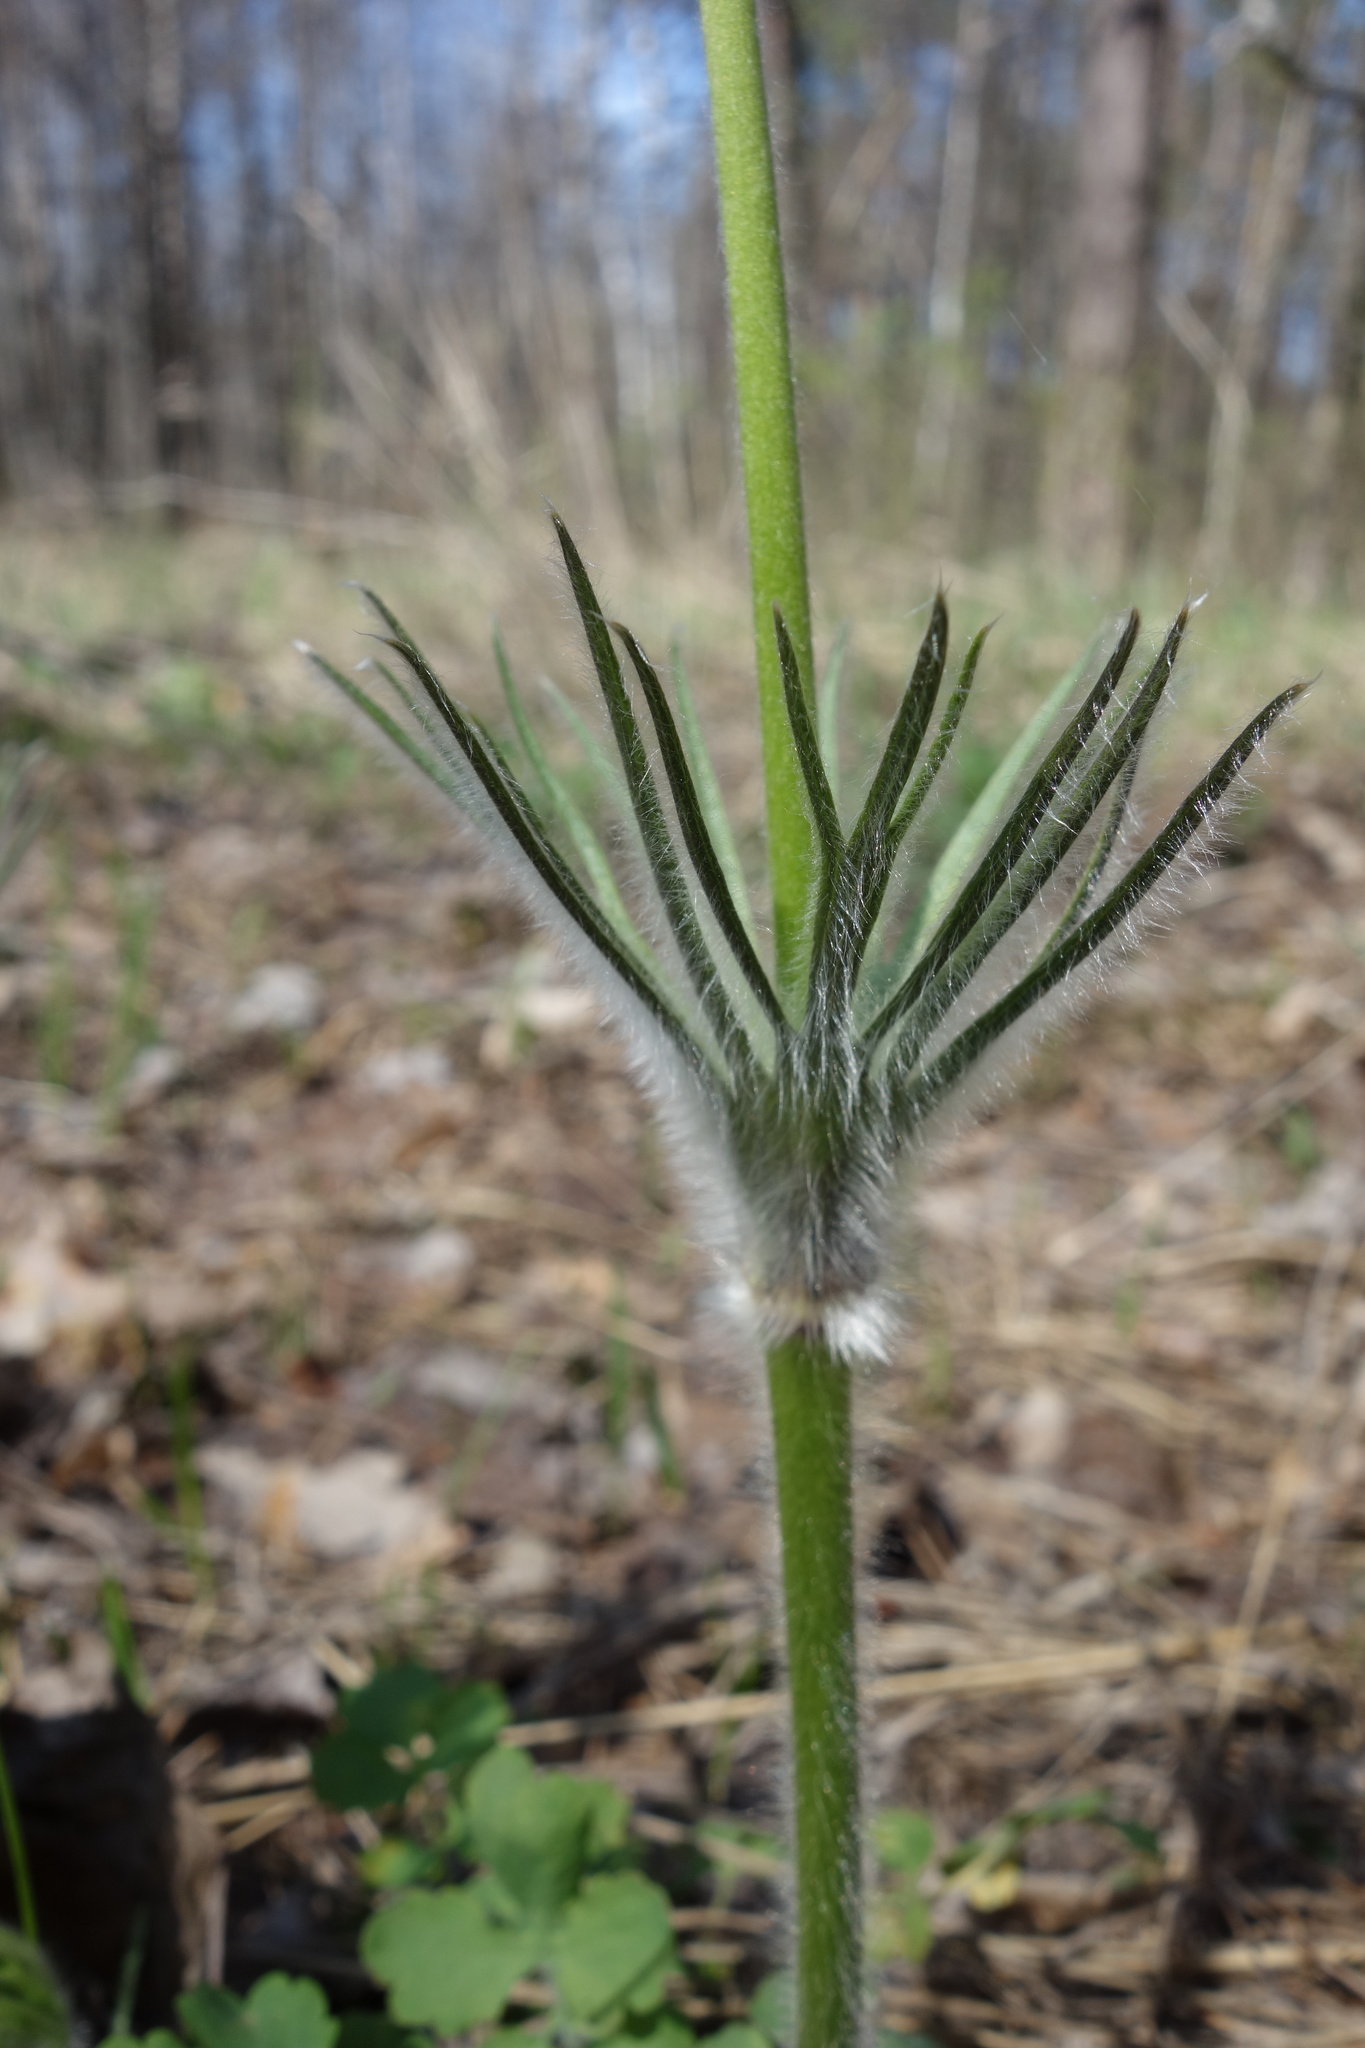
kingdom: Plantae
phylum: Tracheophyta
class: Magnoliopsida
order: Ranunculales
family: Ranunculaceae
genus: Pulsatilla
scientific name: Pulsatilla patens
